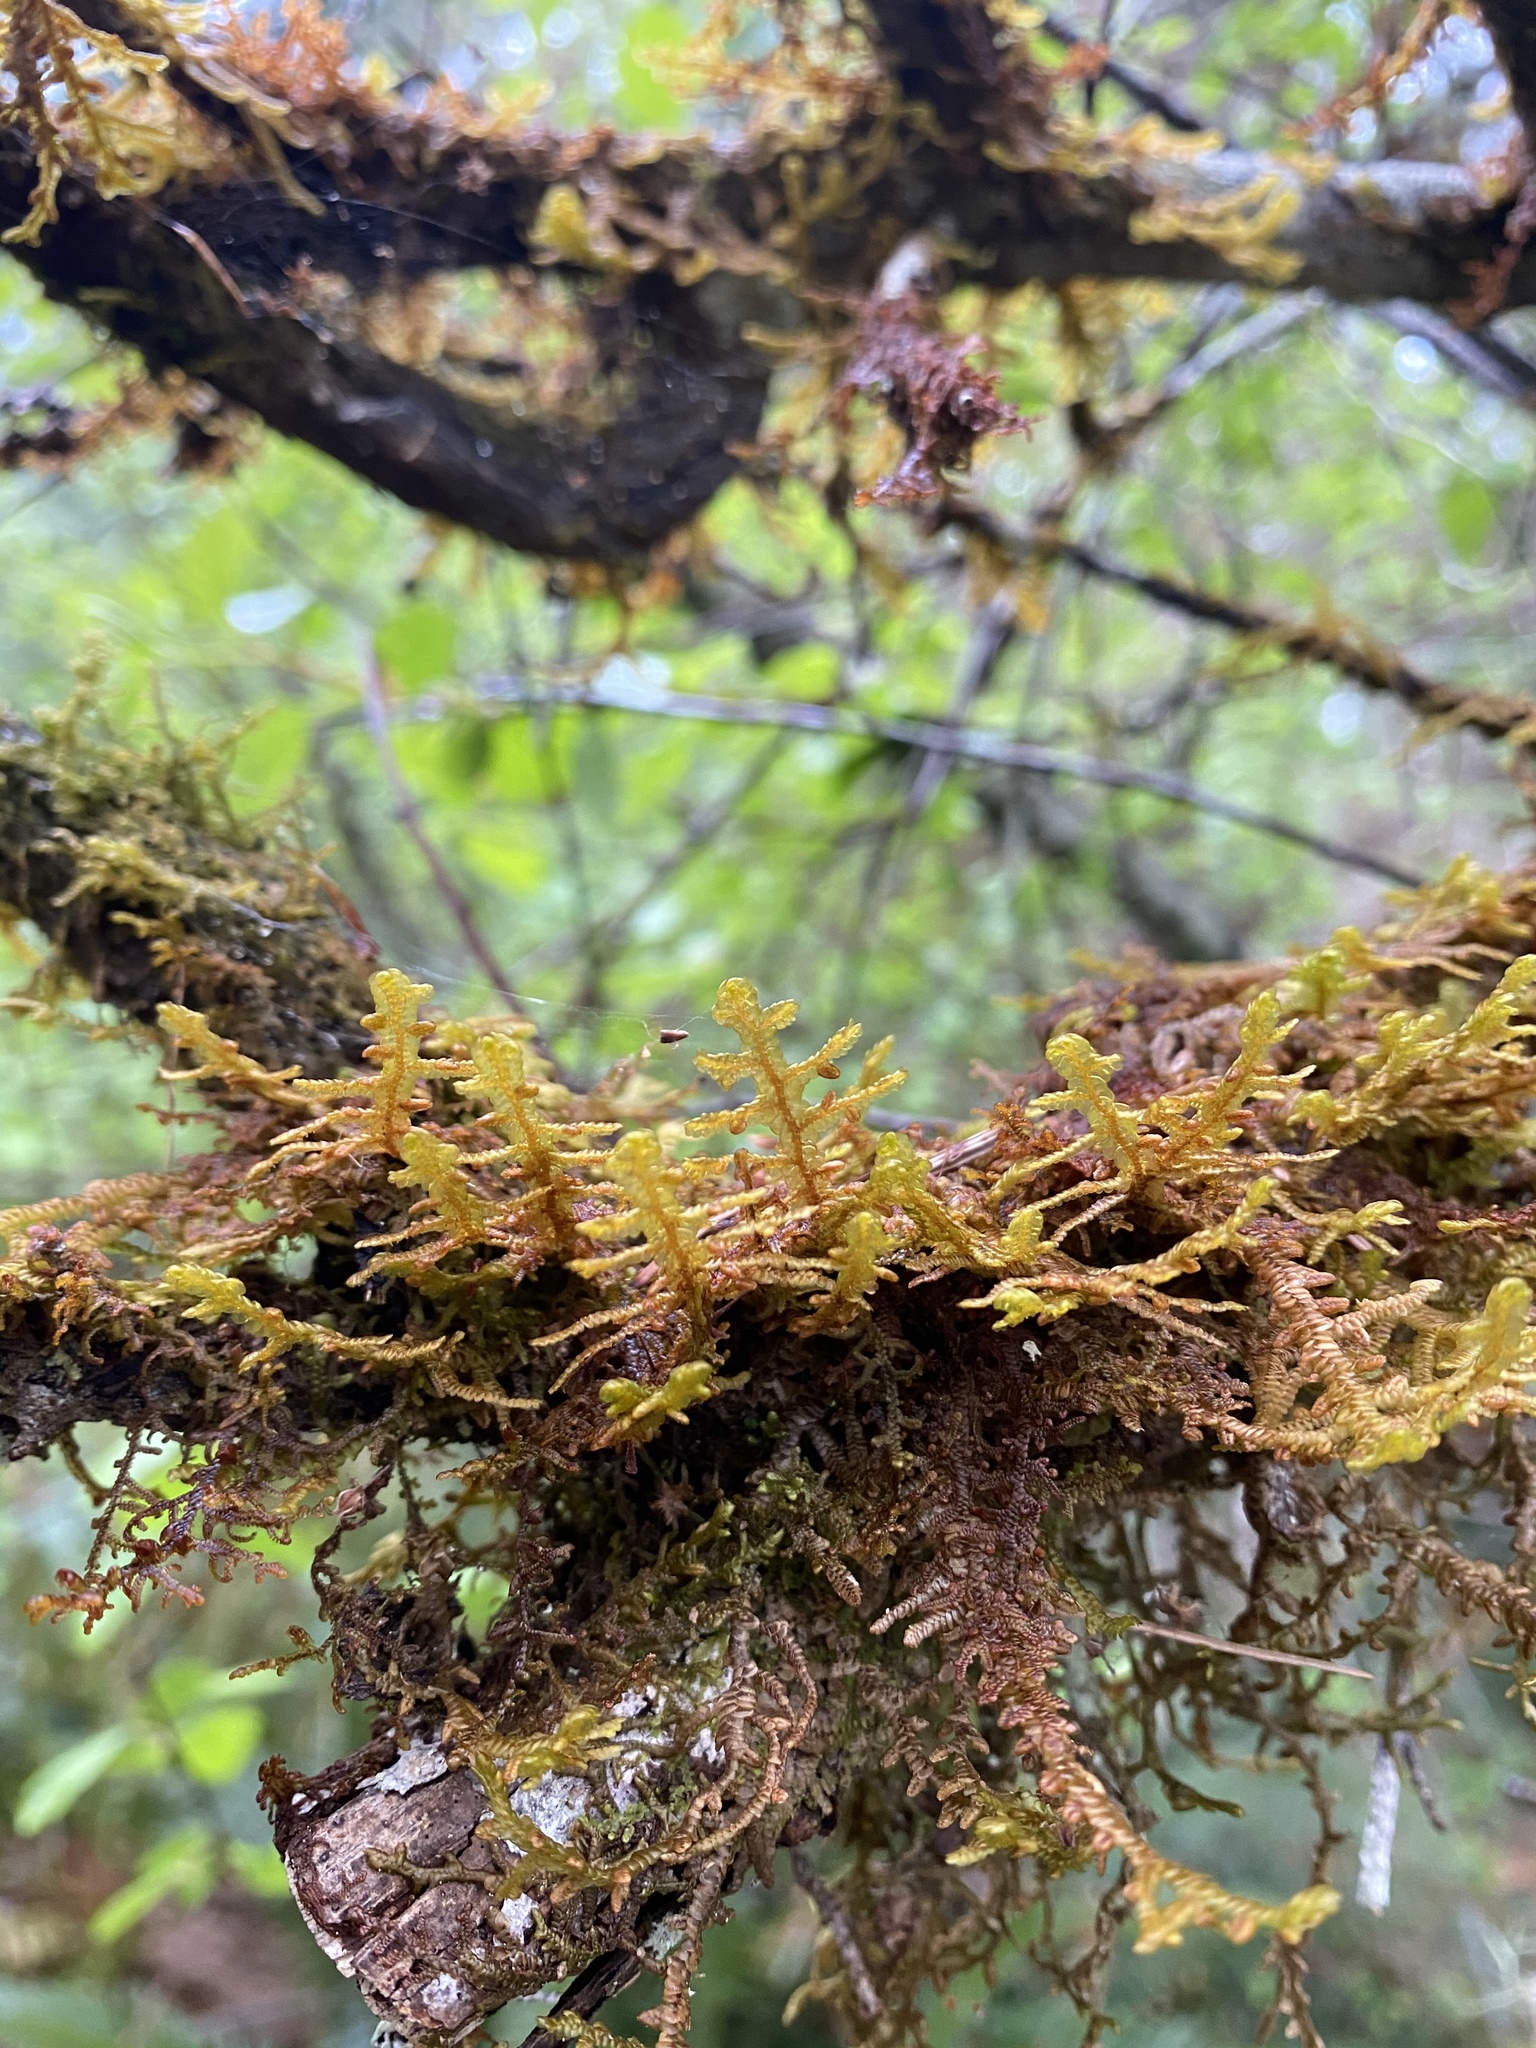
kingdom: Plantae
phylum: Marchantiophyta
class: Jungermanniopsida
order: Porellales
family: Porellaceae
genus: Porella
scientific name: Porella navicularis
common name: Tree ruffle liverwort
